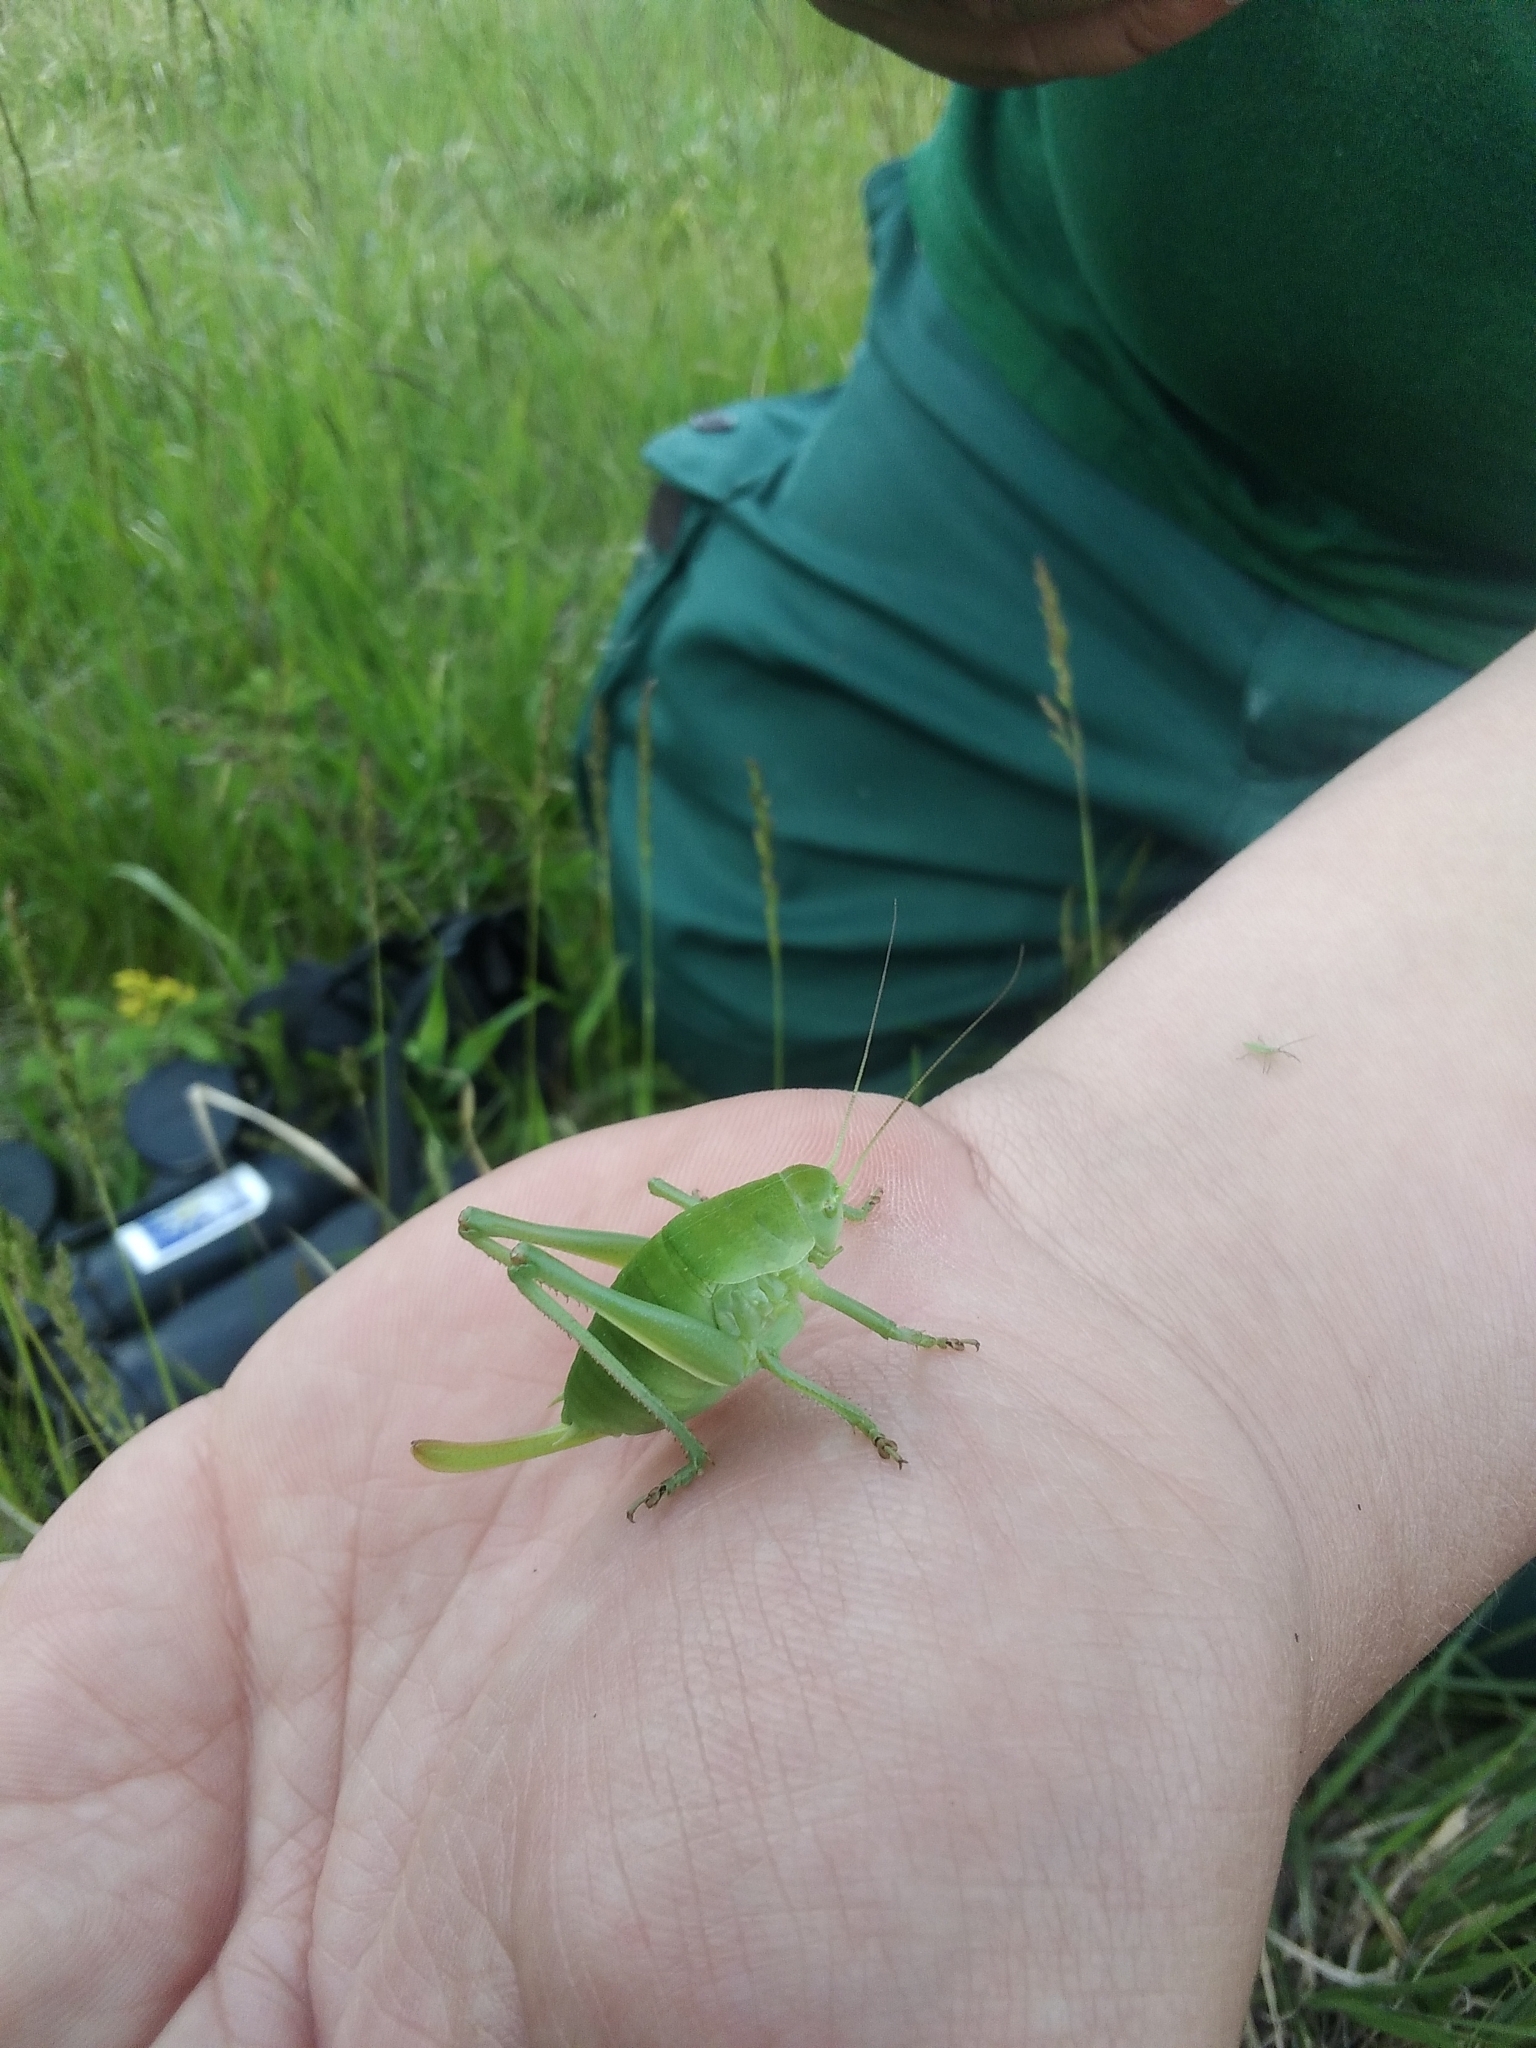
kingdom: Animalia
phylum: Arthropoda
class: Insecta
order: Orthoptera
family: Tettigoniidae
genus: Polysarcus
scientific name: Polysarcus denticauda
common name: Large saw-tailed bush-cricket
